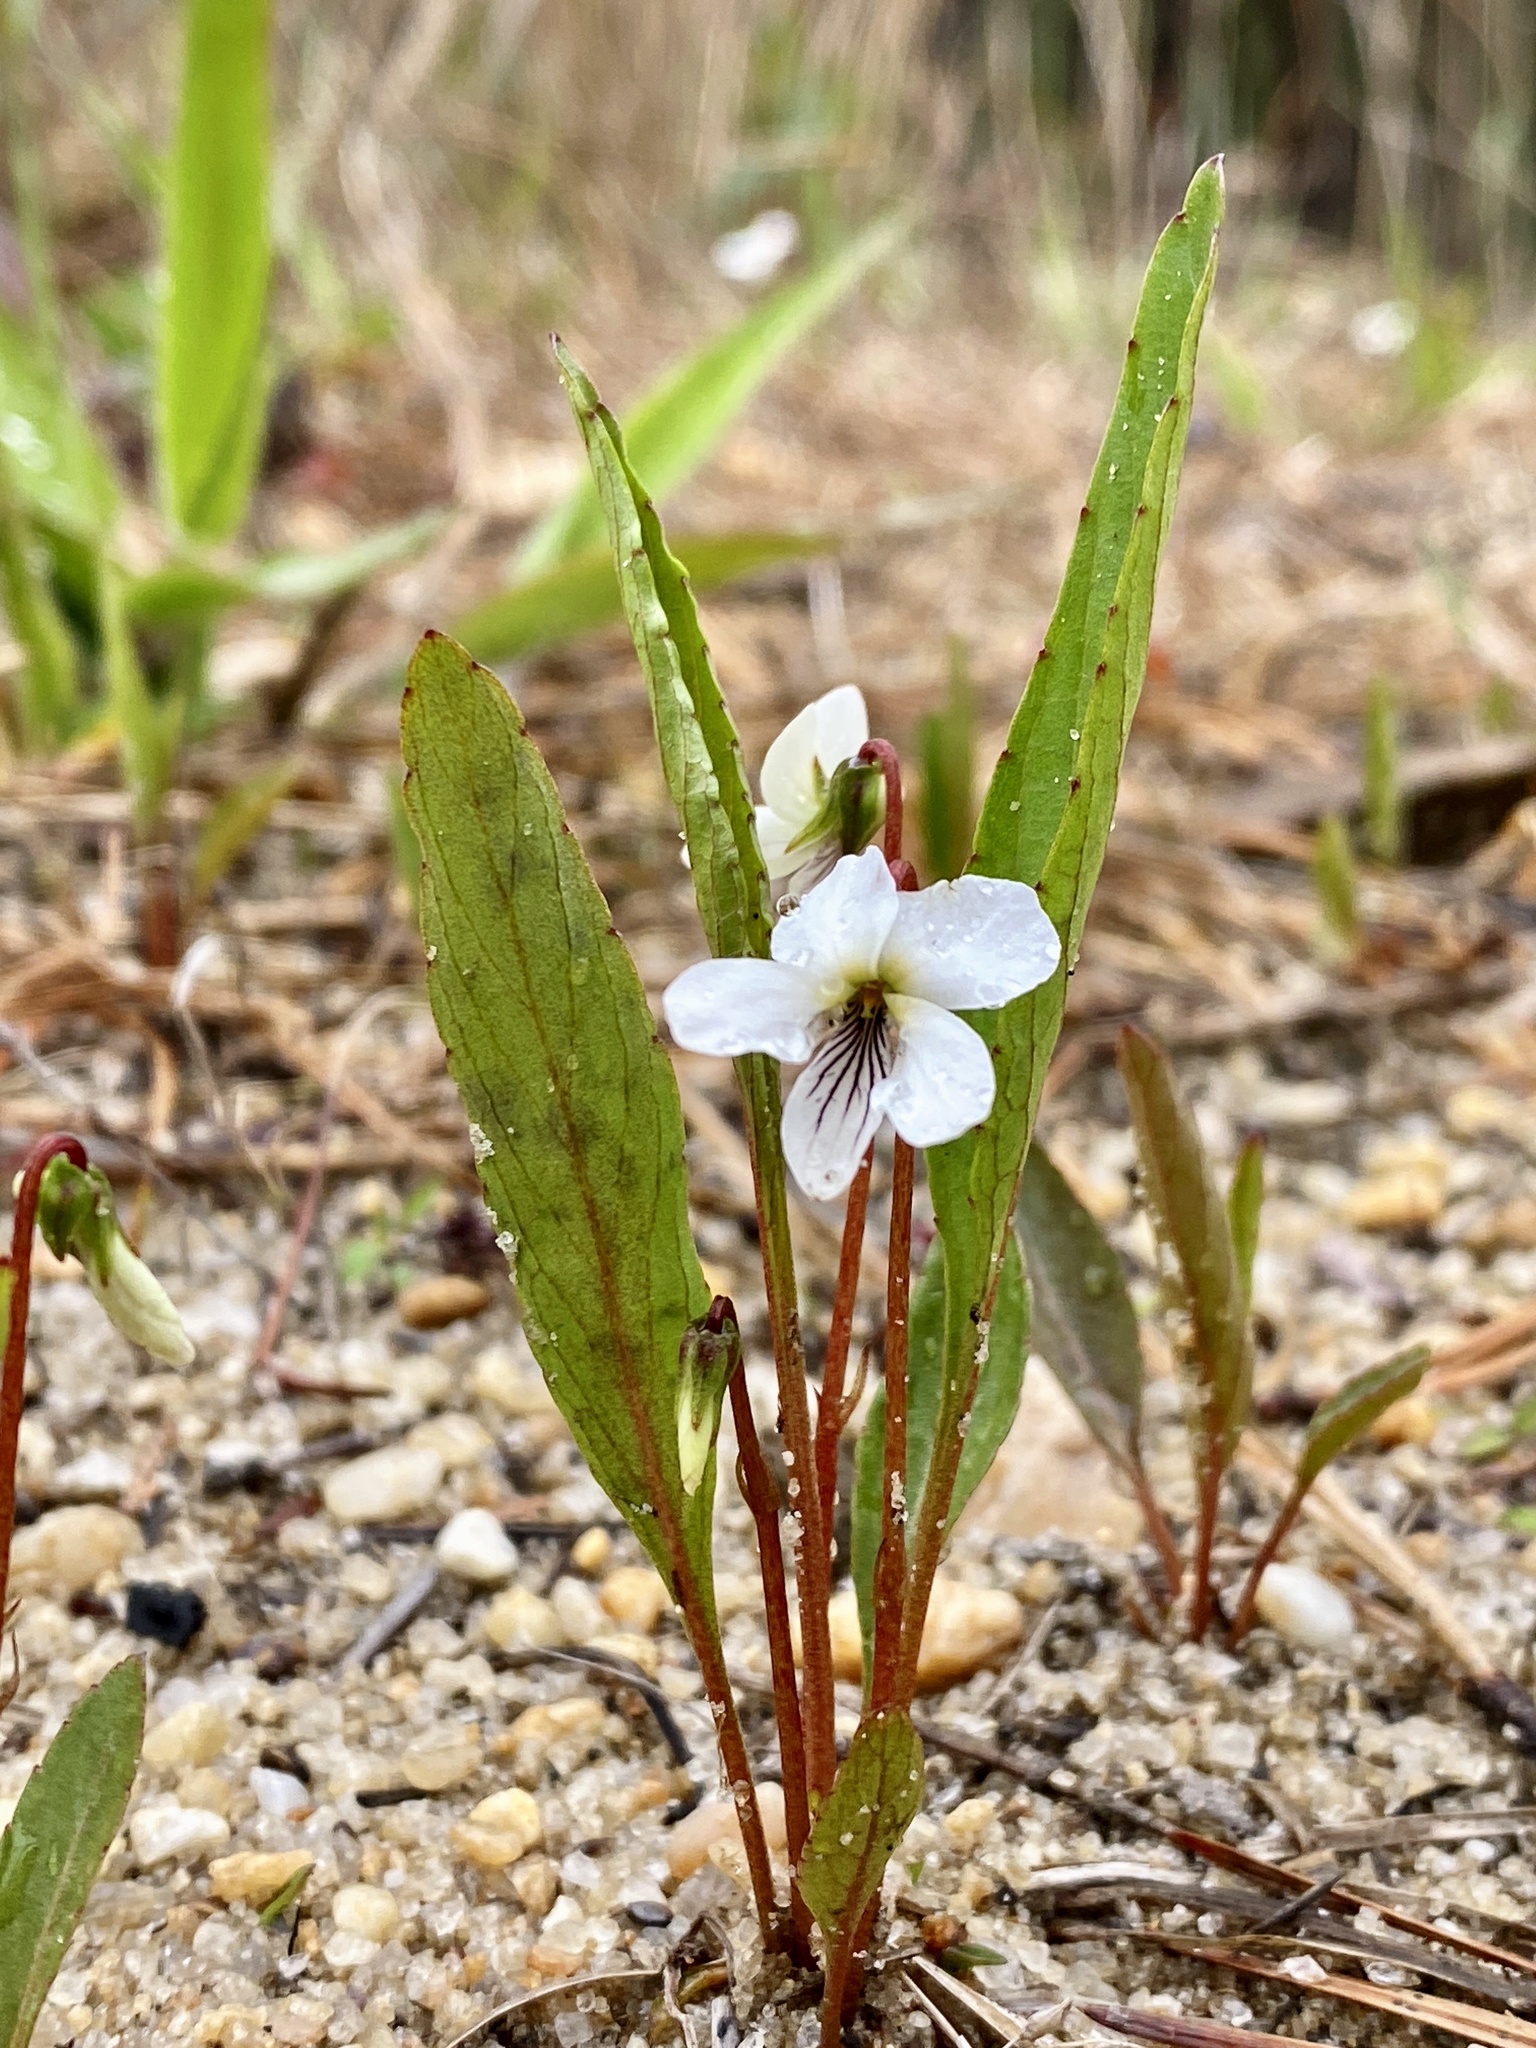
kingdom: Plantae
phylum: Tracheophyta
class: Magnoliopsida
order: Malpighiales
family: Violaceae
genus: Viola
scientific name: Viola lanceolata
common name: Bog white violet
